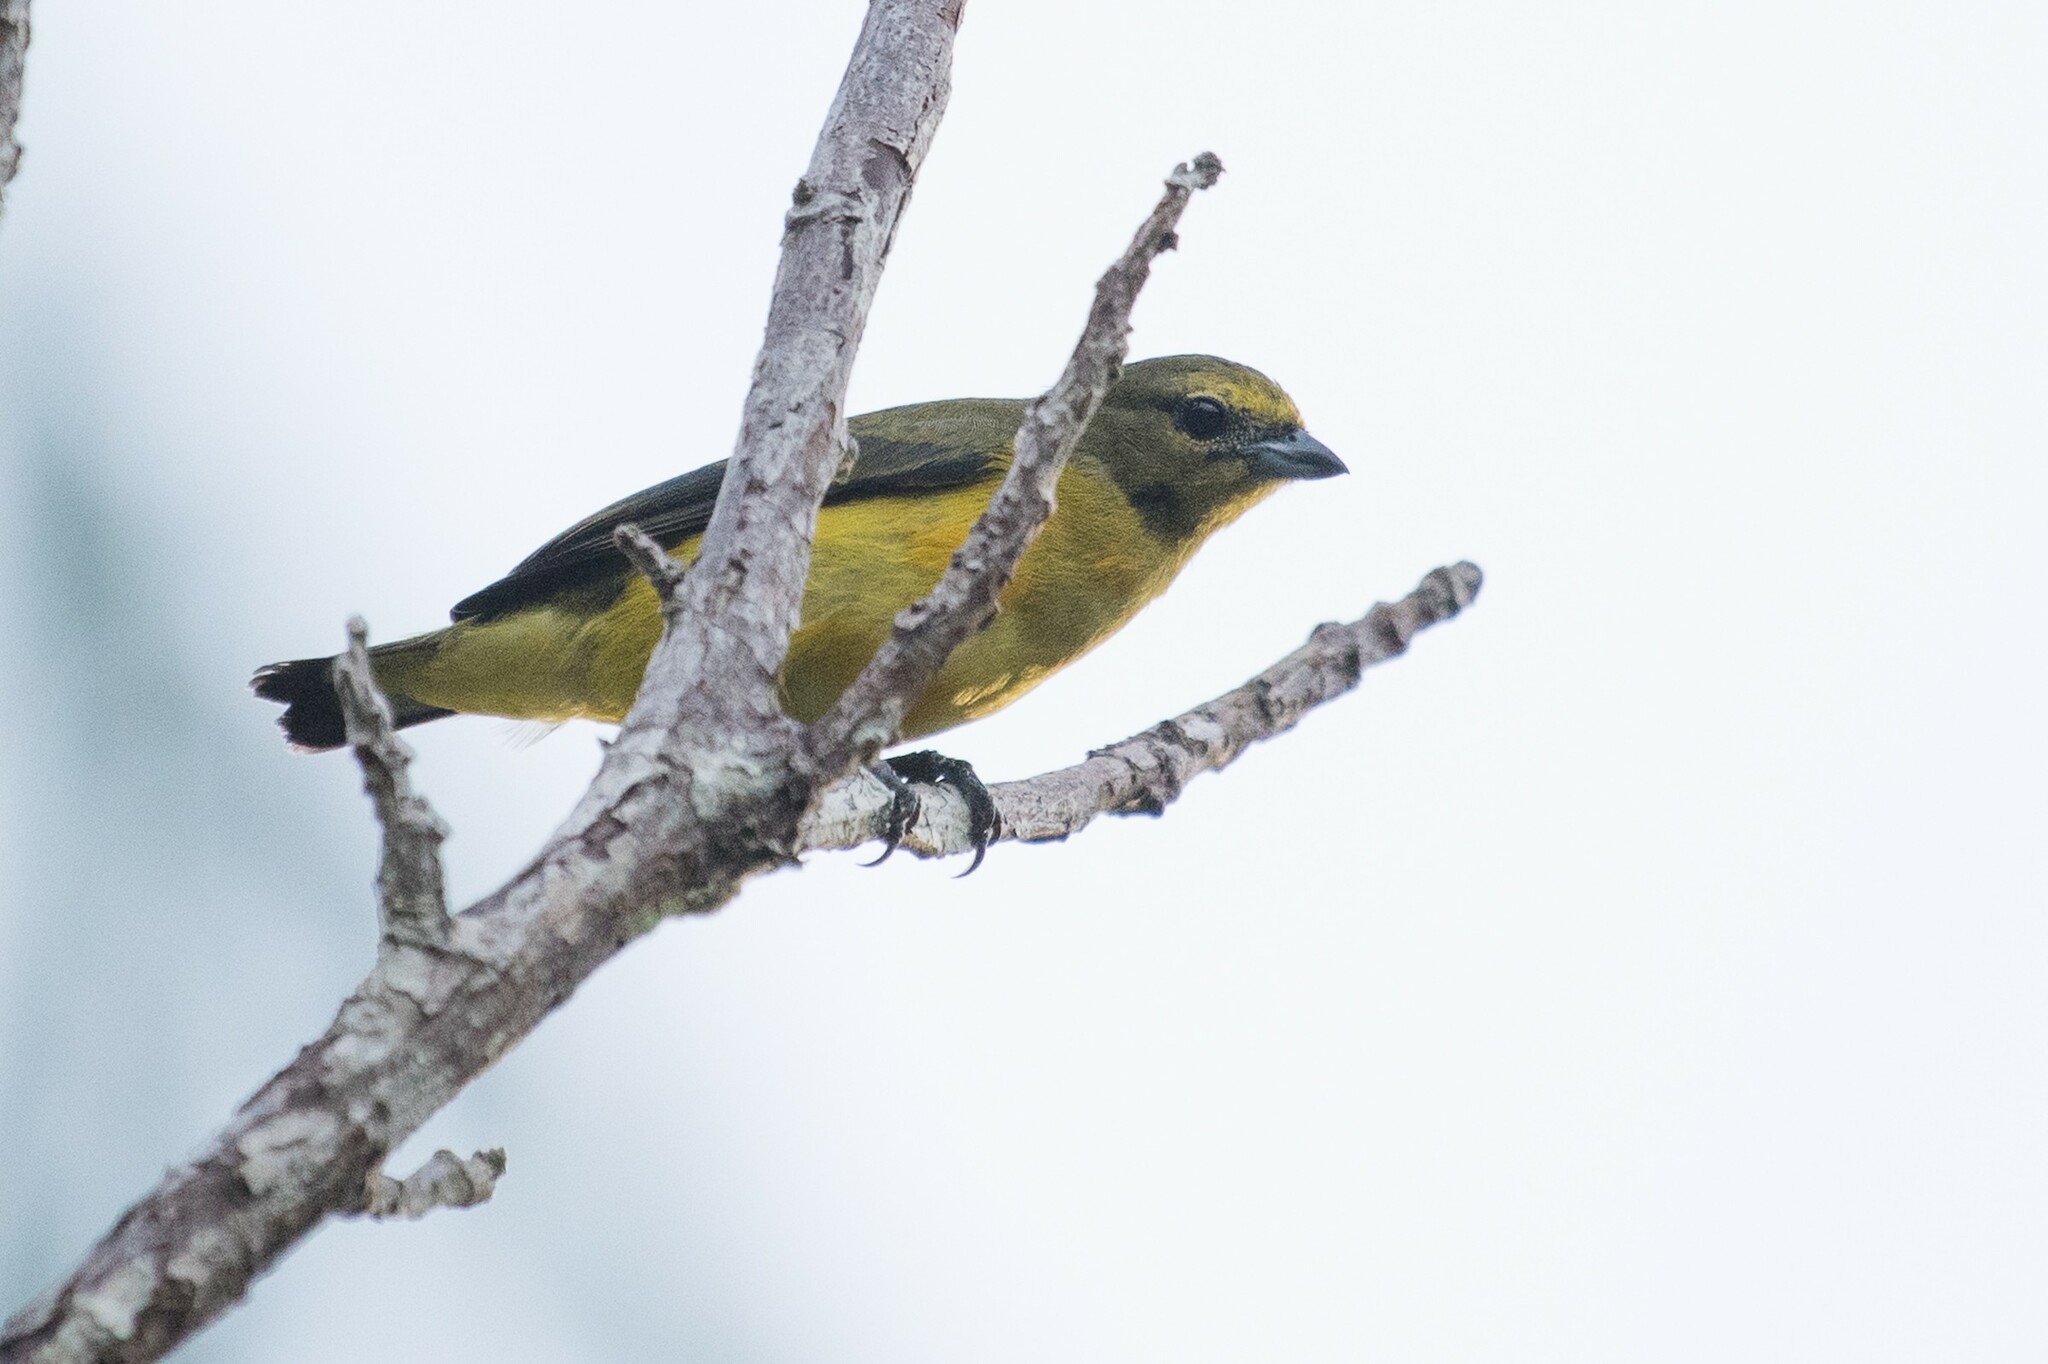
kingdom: Animalia
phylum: Chordata
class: Aves
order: Passeriformes
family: Fringillidae
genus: Euphonia
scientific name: Euphonia chlorotica
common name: Purple-throated euphonia
